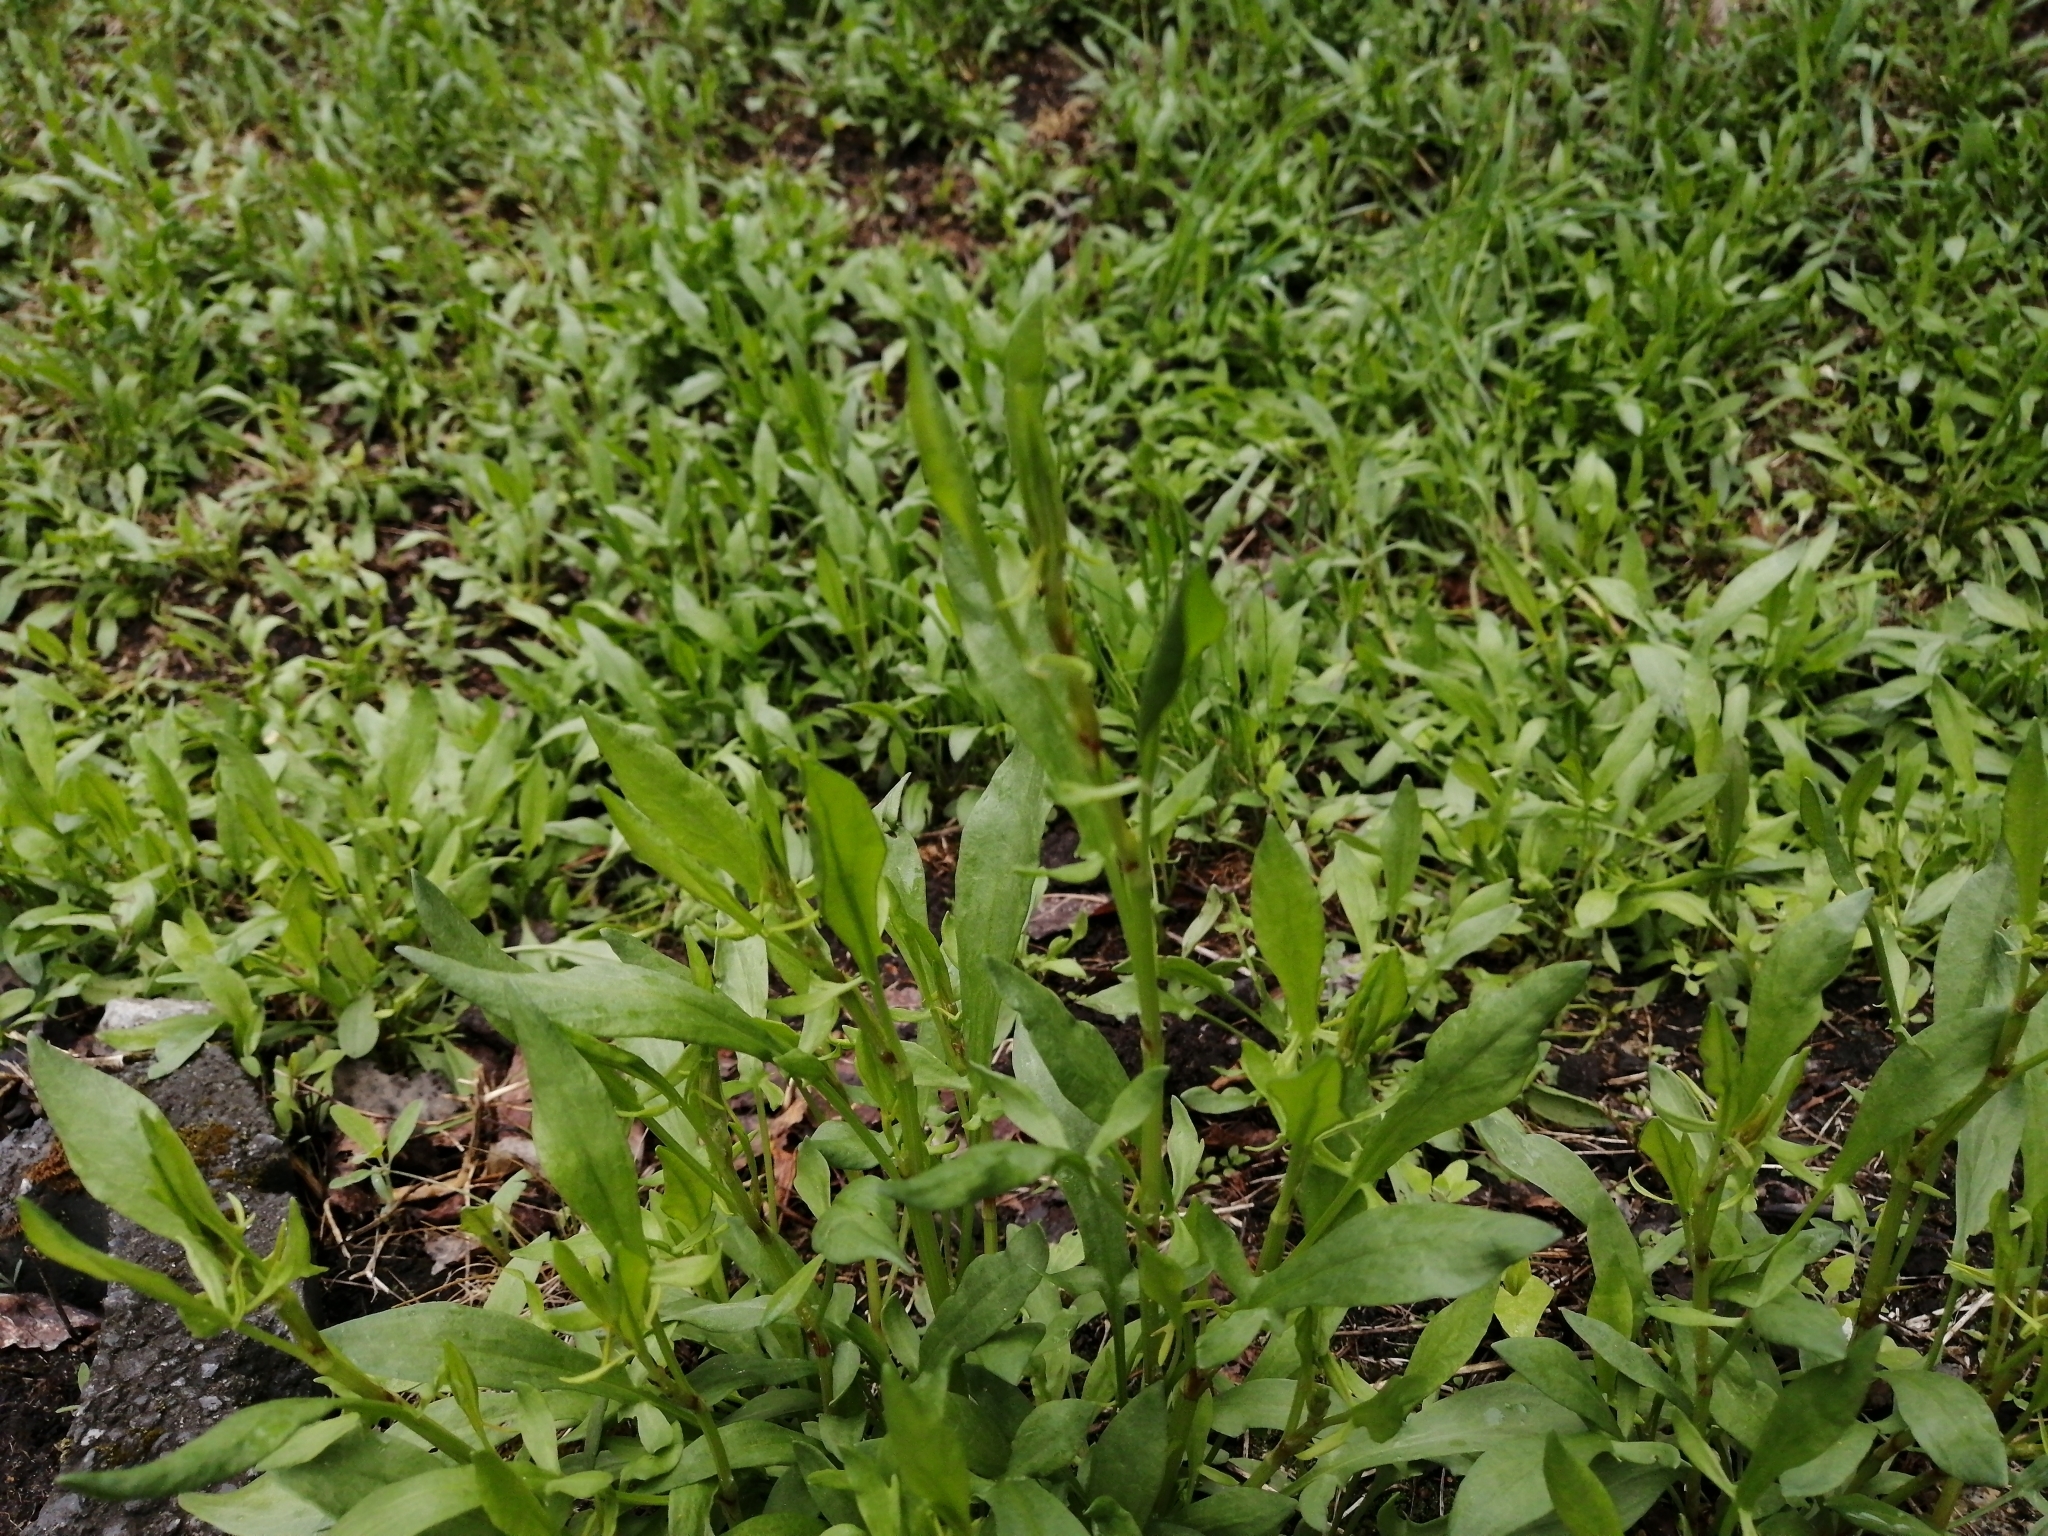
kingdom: Plantae
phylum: Tracheophyta
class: Magnoliopsida
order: Caryophyllales
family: Polygonaceae
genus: Rumex
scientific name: Rumex acetosella
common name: Common sheep sorrel
